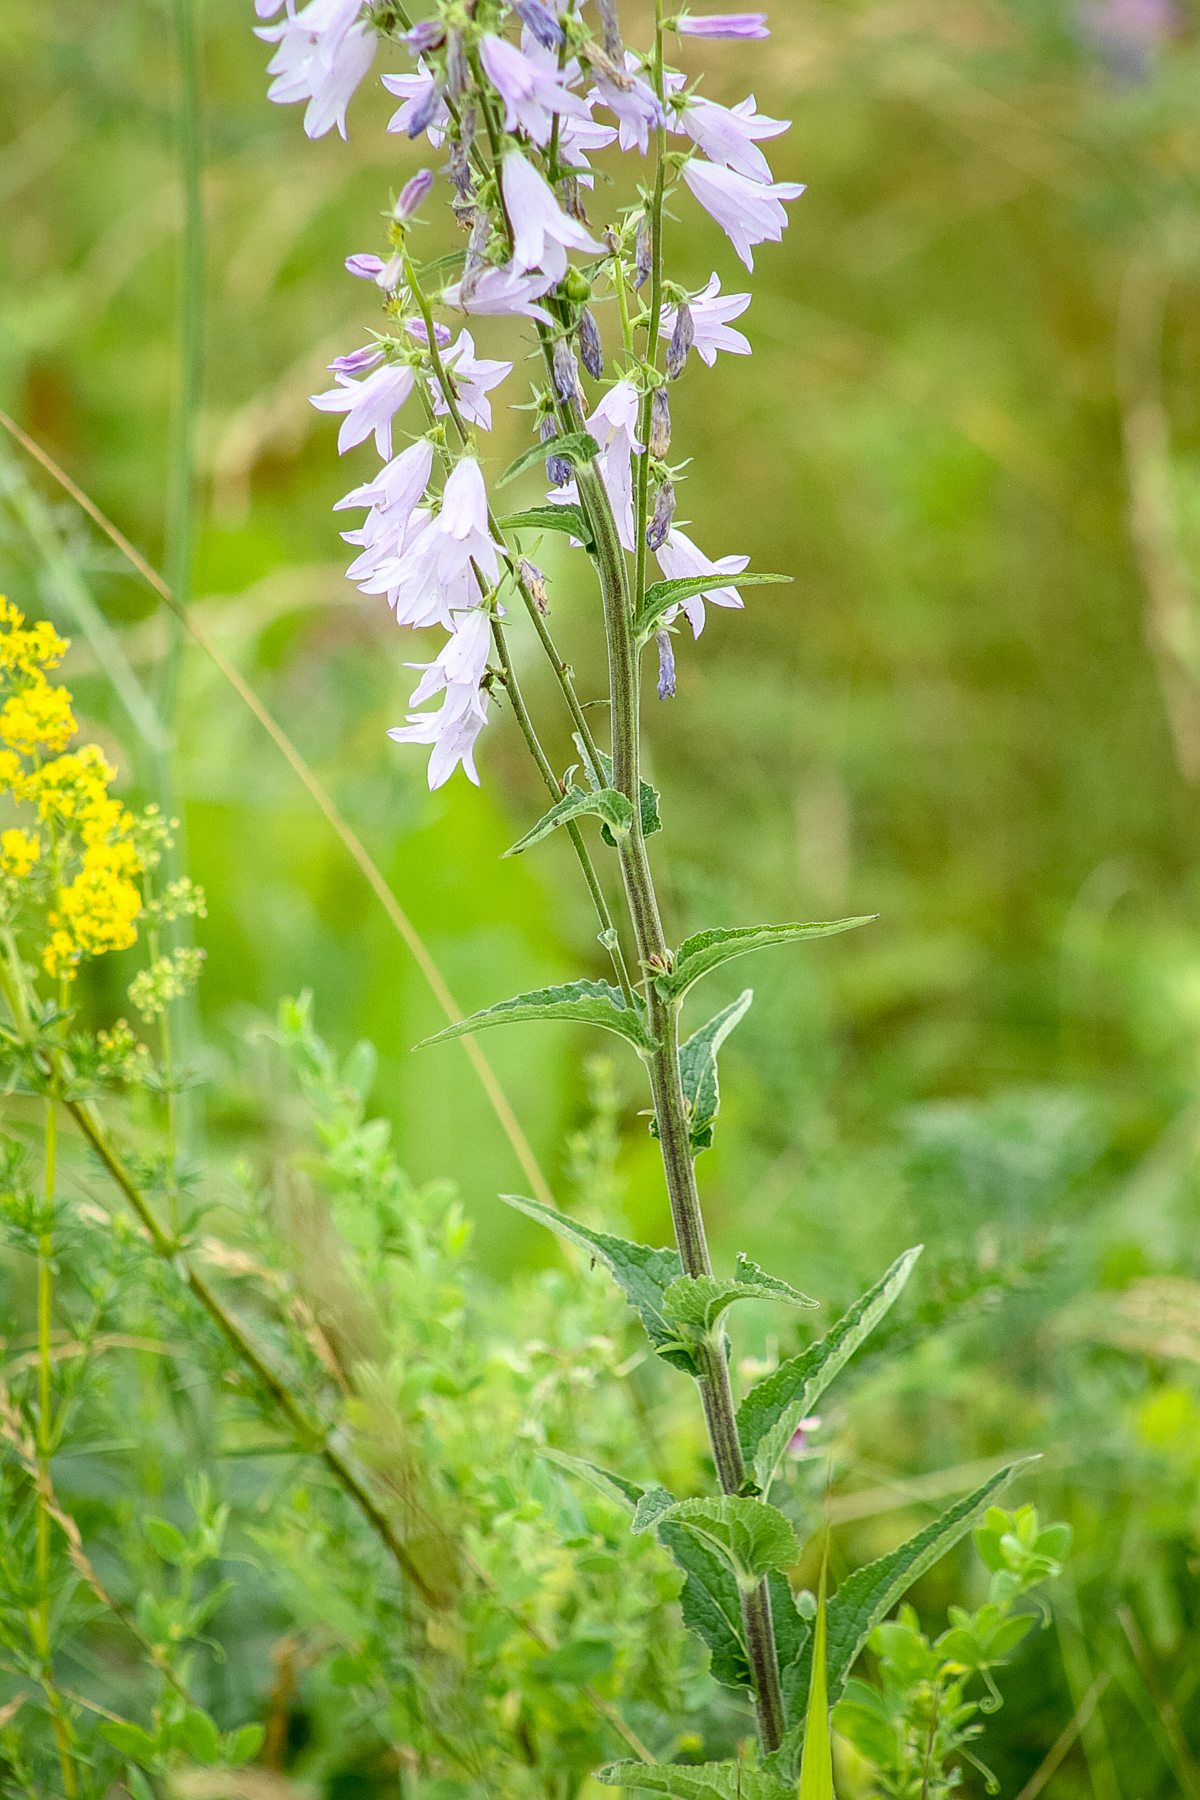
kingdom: Plantae
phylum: Tracheophyta
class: Magnoliopsida
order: Asterales
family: Campanulaceae
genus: Campanula
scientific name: Campanula bononiensis
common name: Pale bellflower
